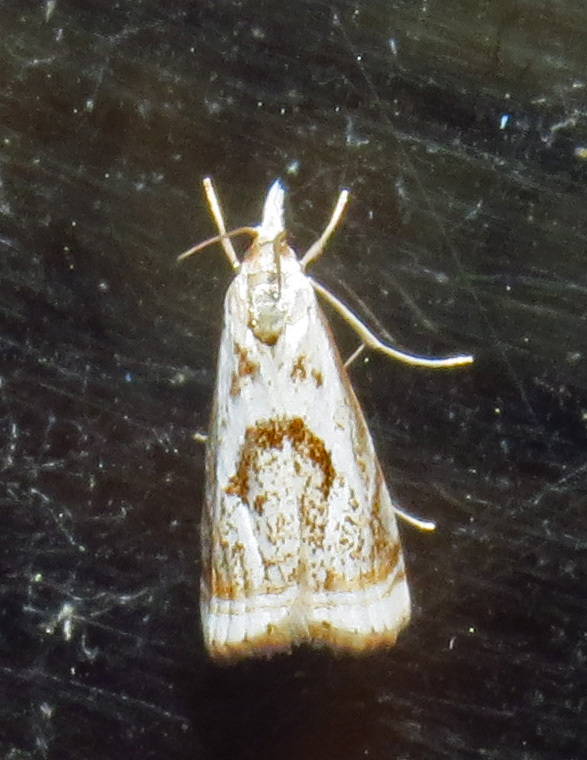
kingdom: Animalia
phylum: Arthropoda
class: Insecta
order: Lepidoptera
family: Crambidae
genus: Microcrambus
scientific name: Microcrambus elegans
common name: Elegant grass-veneer
